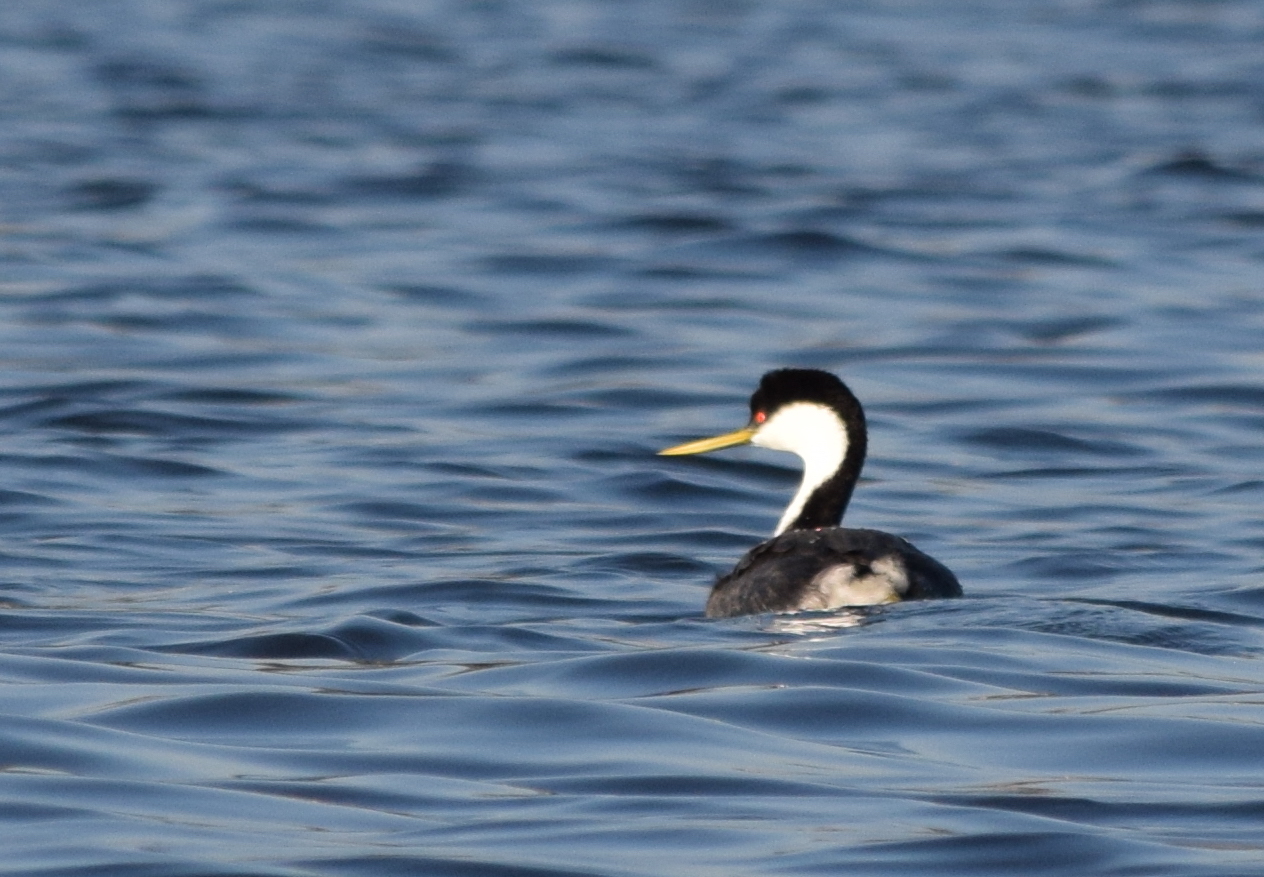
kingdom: Animalia
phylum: Chordata
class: Aves
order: Podicipediformes
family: Podicipedidae
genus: Aechmophorus
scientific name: Aechmophorus occidentalis
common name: Western grebe
